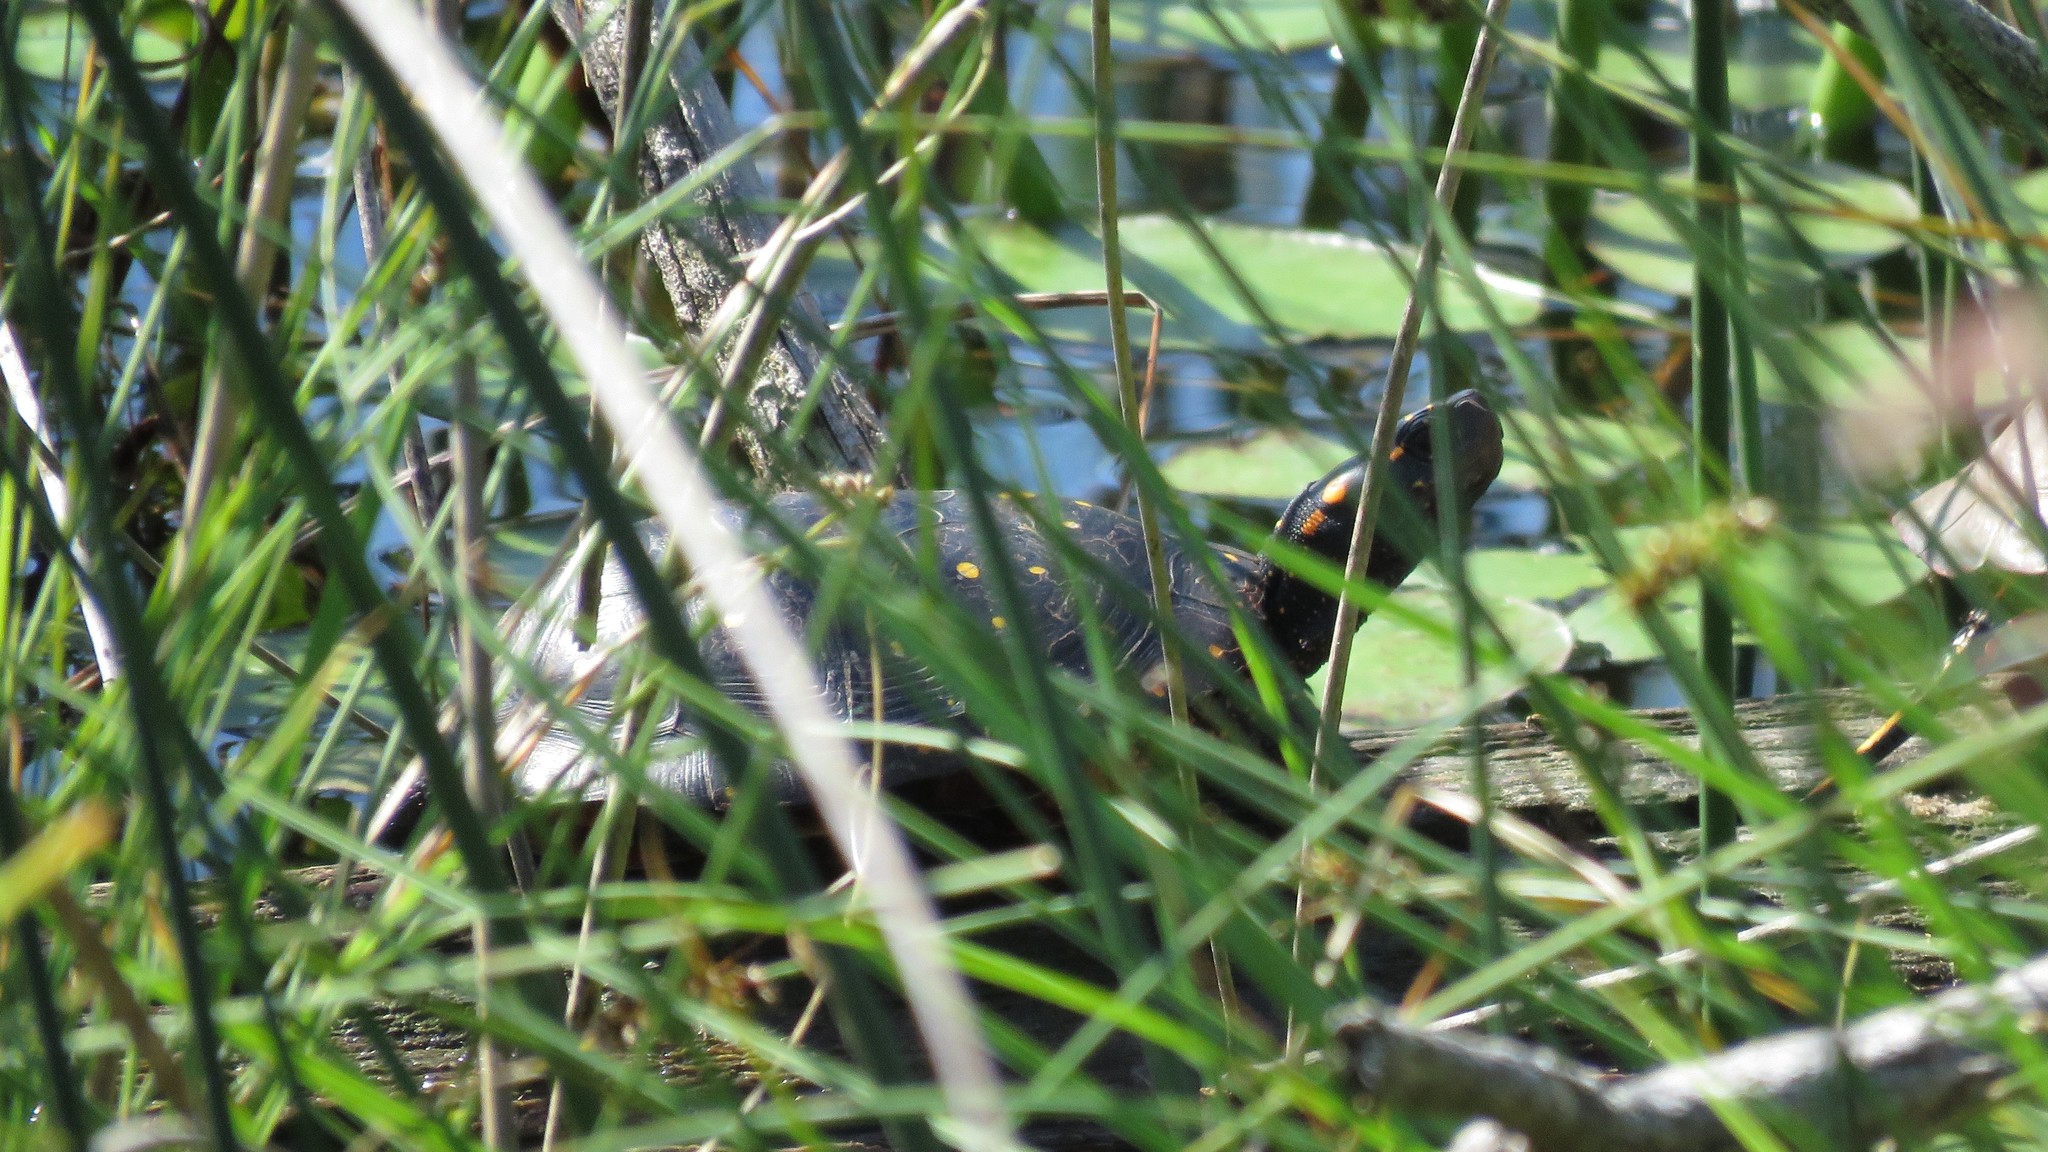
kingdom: Animalia
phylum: Chordata
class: Testudines
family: Emydidae
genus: Clemmys
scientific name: Clemmys guttata
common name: Spotted turtle
